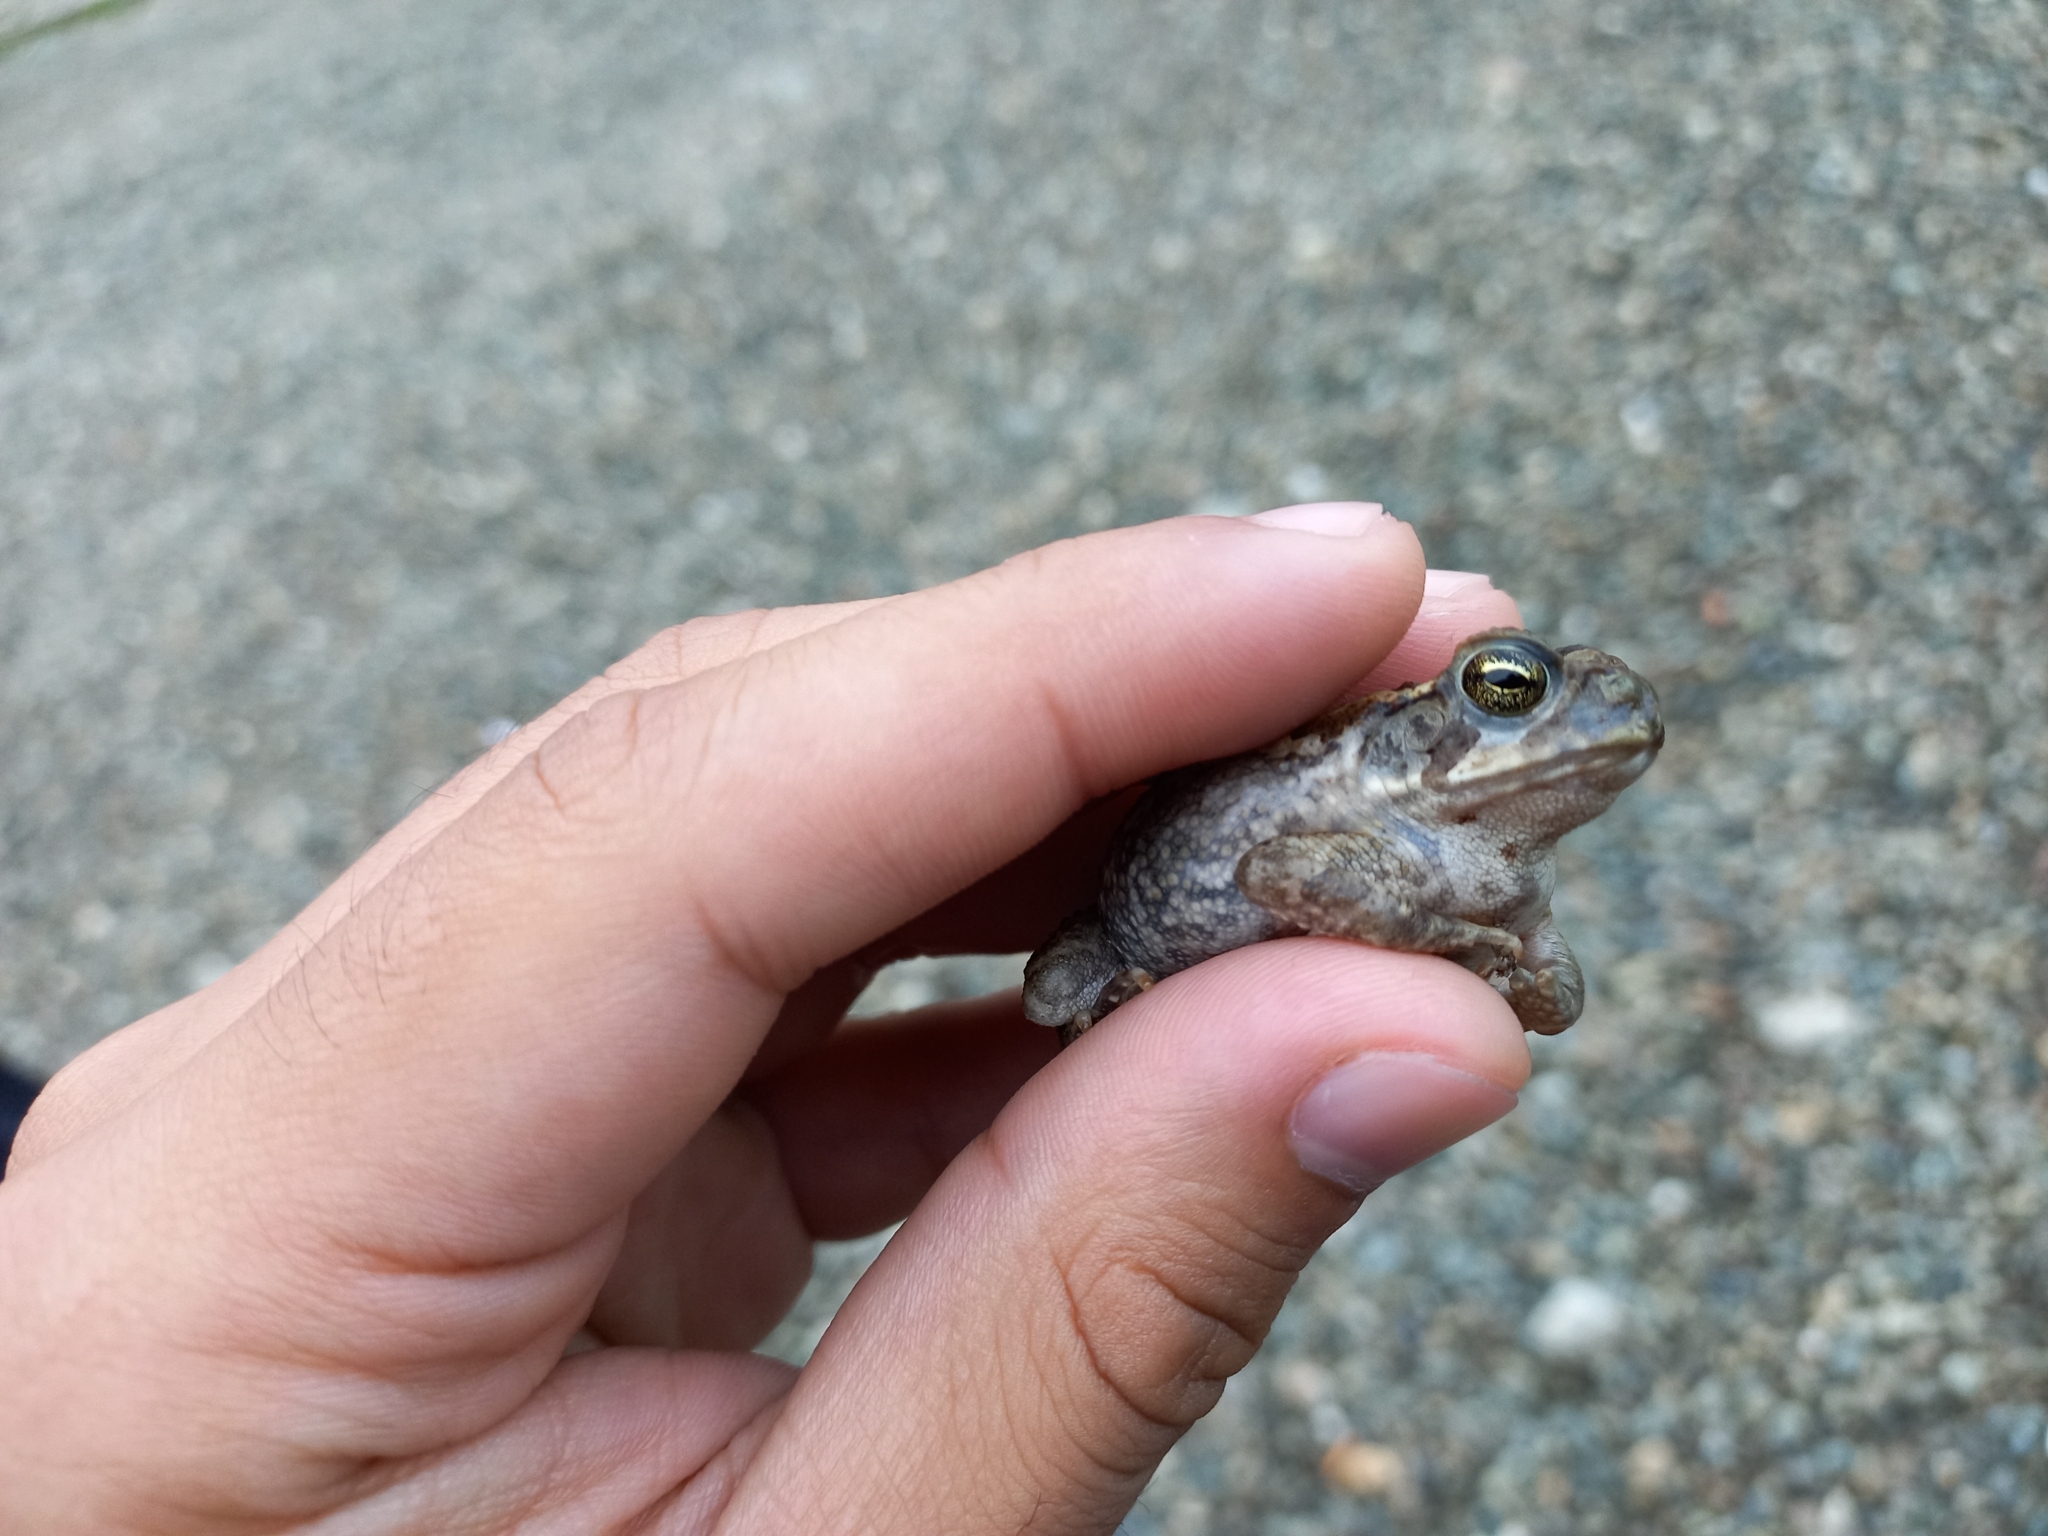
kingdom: Animalia
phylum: Chordata
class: Amphibia
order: Anura
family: Bufonidae
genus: Rhinella
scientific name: Rhinella horribilis
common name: Mesoamerican cane toad
